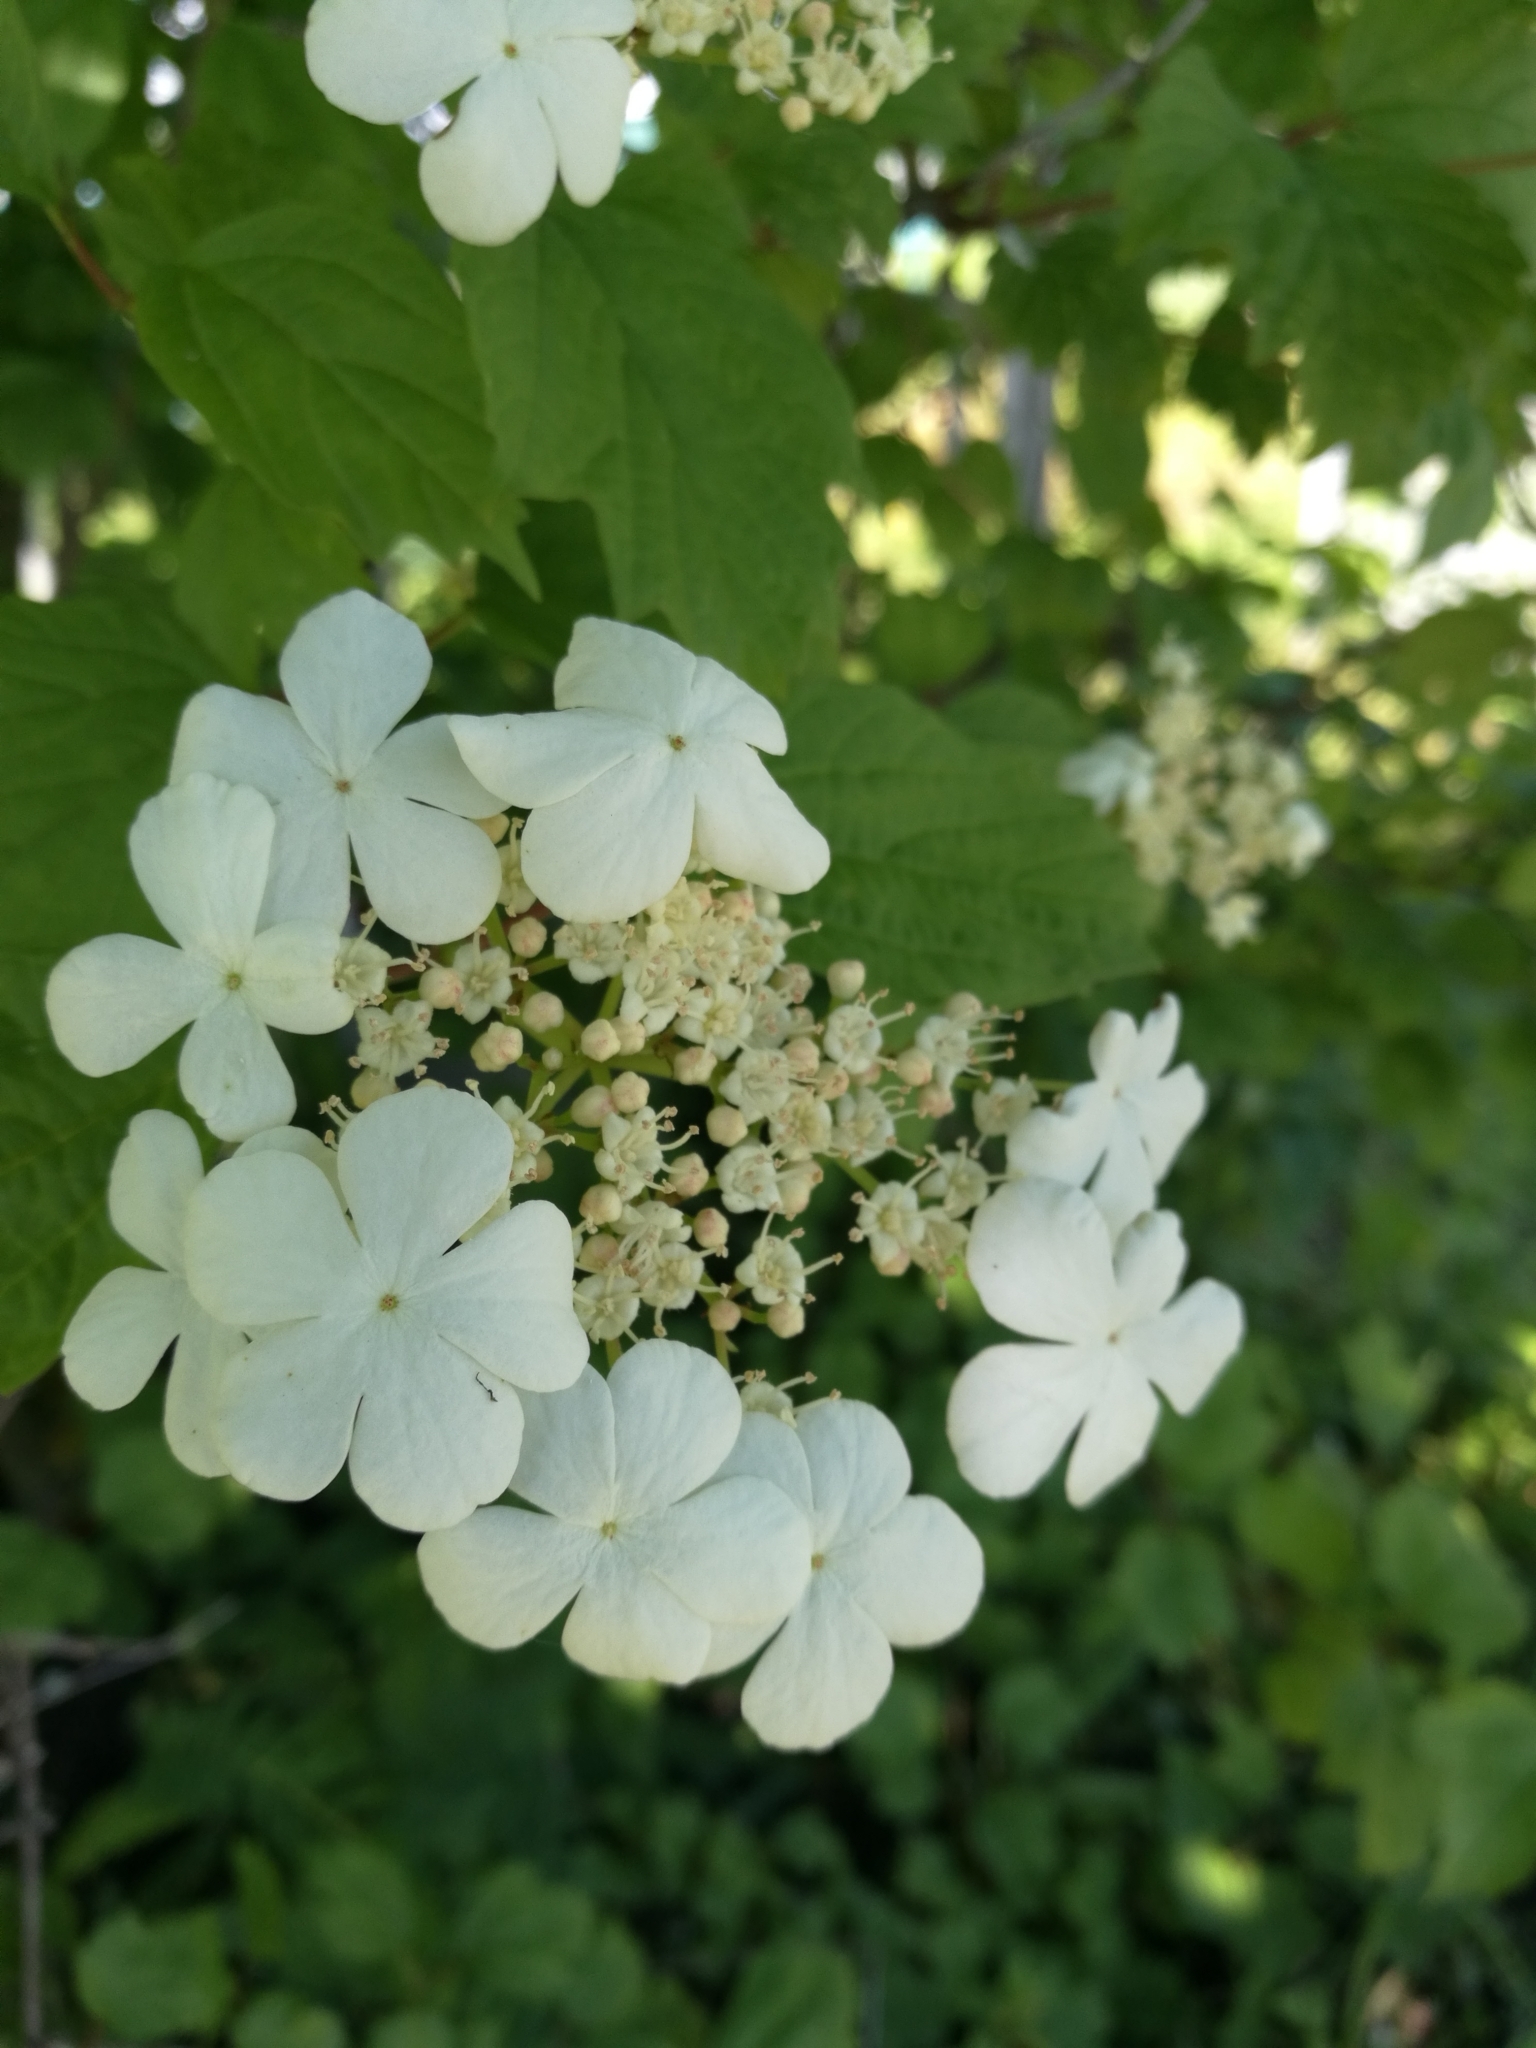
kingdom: Plantae
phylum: Tracheophyta
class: Magnoliopsida
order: Dipsacales
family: Viburnaceae
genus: Viburnum
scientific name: Viburnum opulus
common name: Guelder-rose
